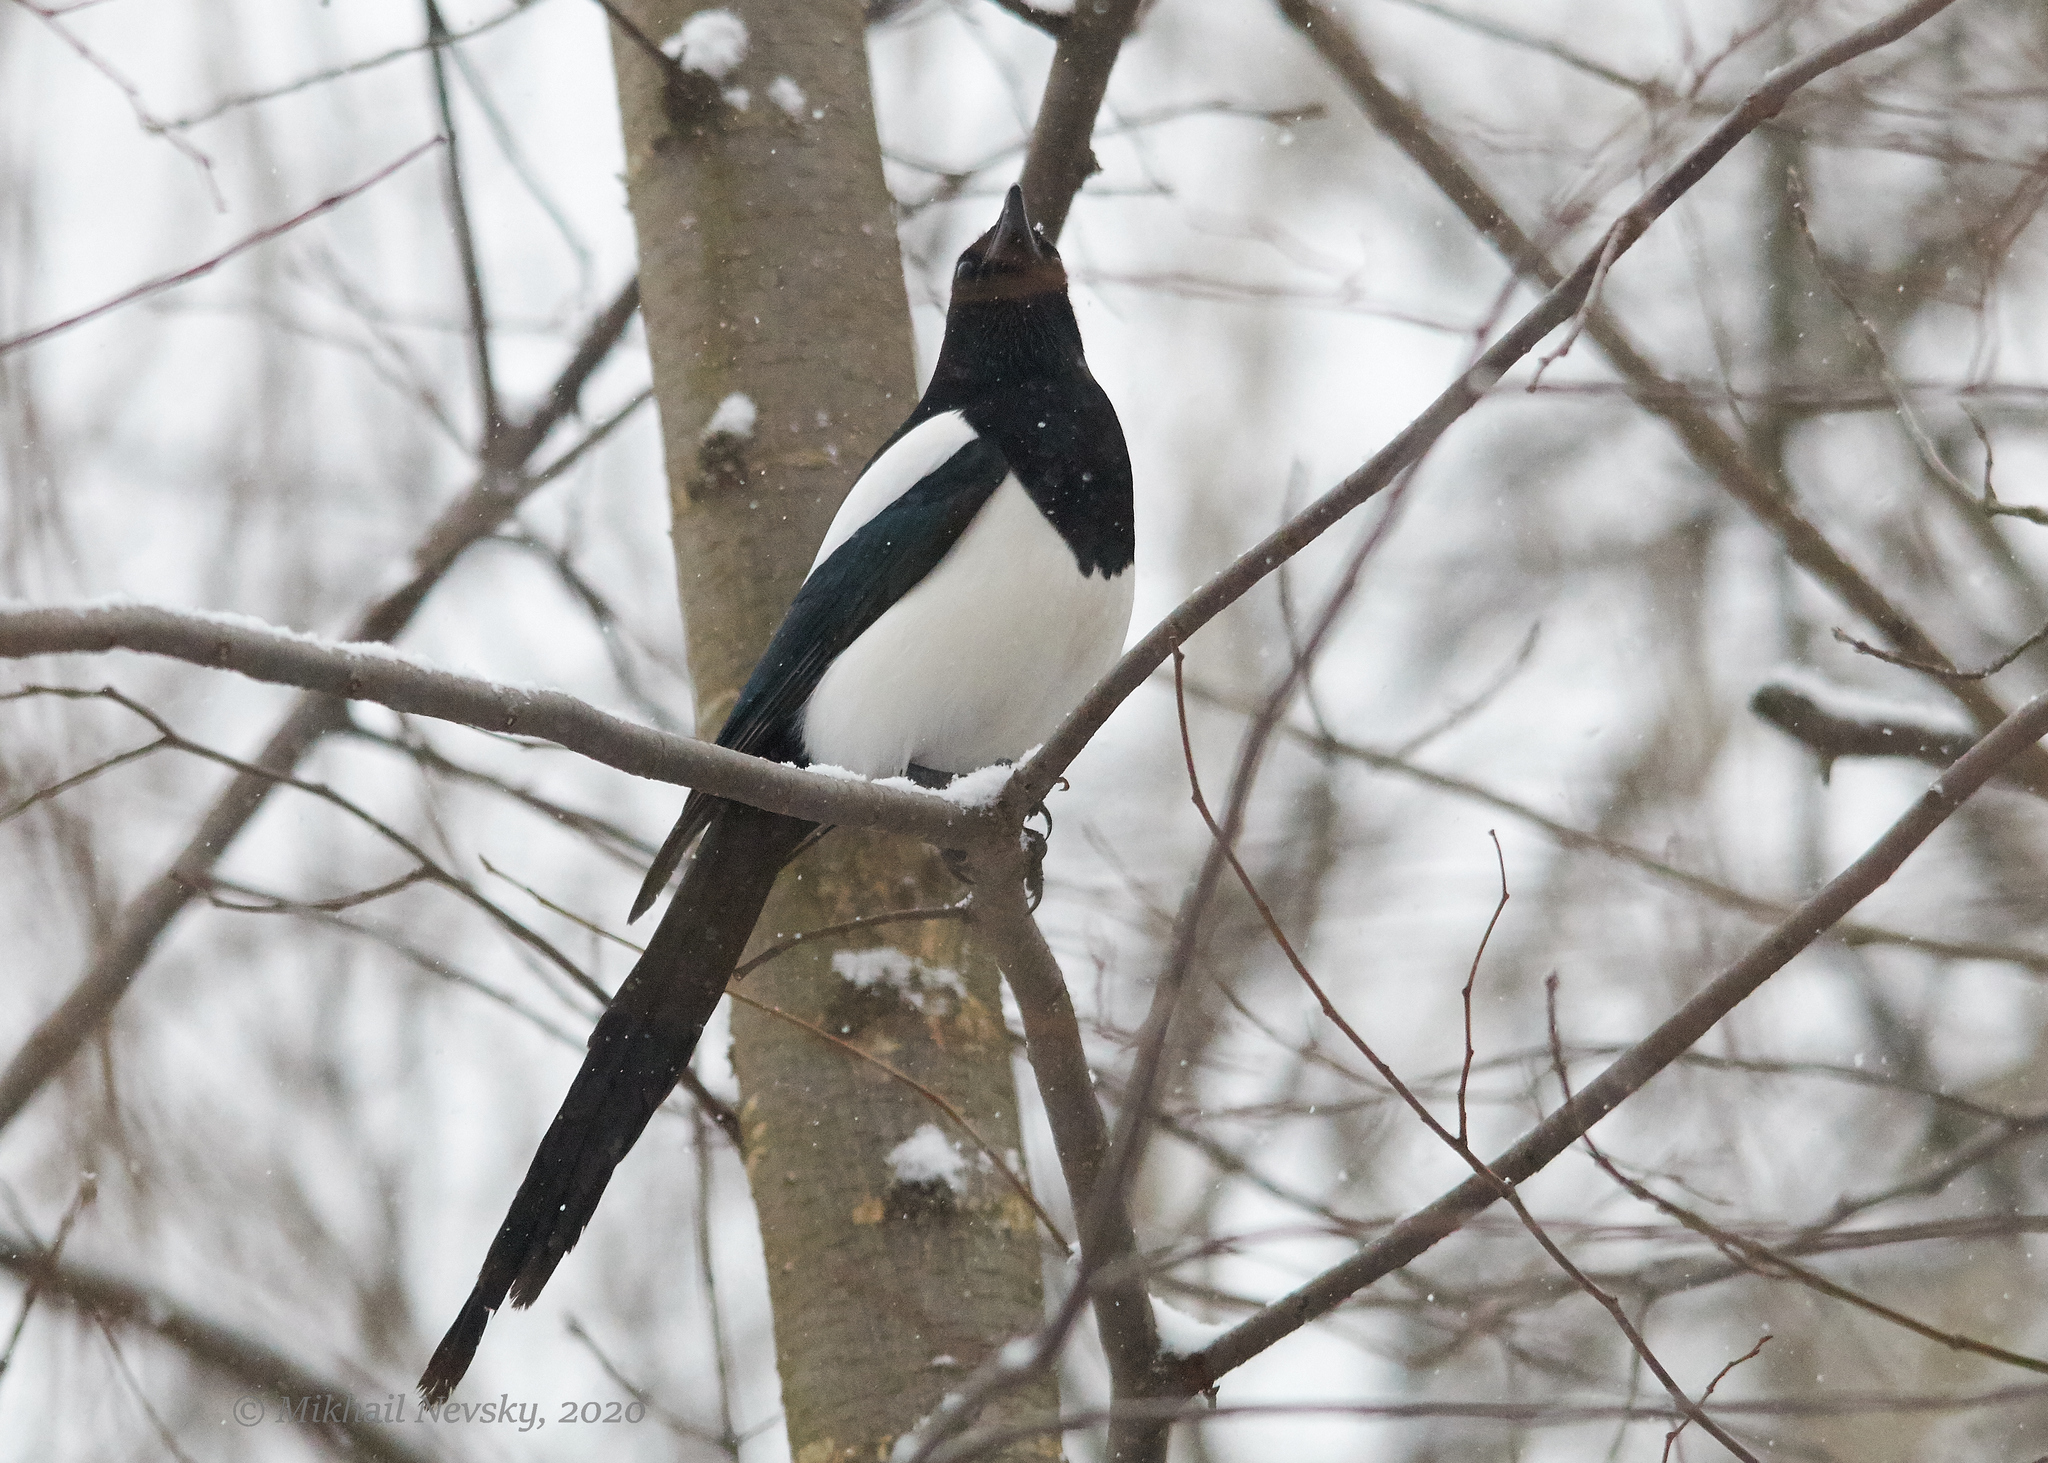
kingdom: Animalia
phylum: Chordata
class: Aves
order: Passeriformes
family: Corvidae
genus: Pica
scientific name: Pica pica
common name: Eurasian magpie
